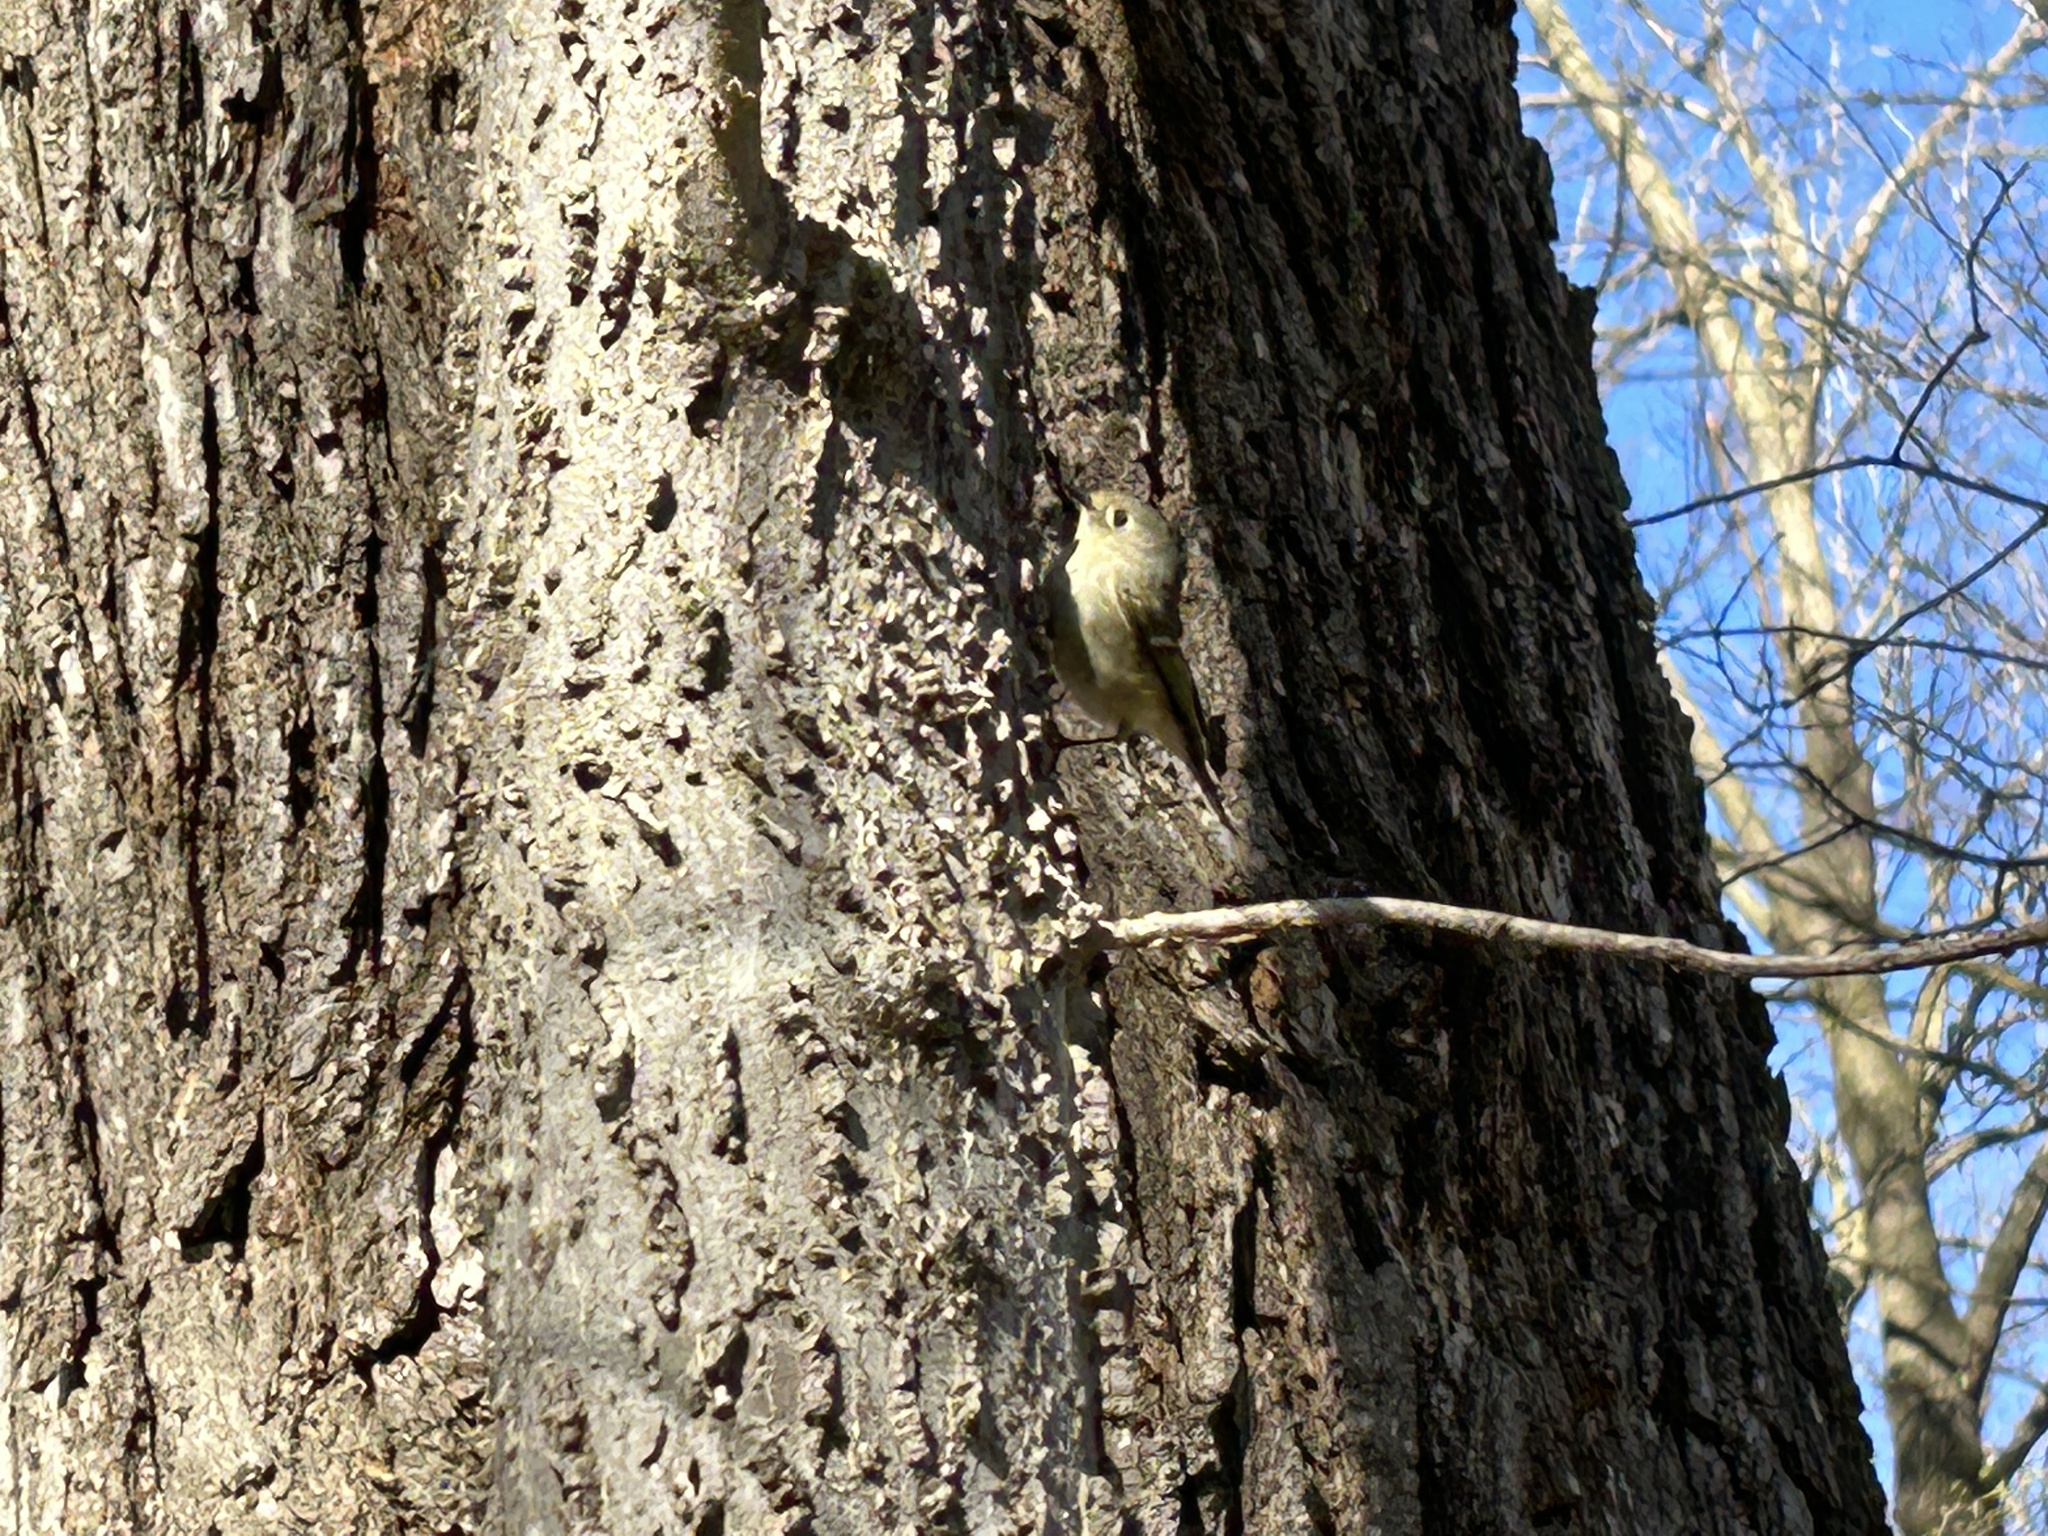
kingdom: Animalia
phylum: Chordata
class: Aves
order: Passeriformes
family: Regulidae
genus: Regulus
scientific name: Regulus calendula
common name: Ruby-crowned kinglet
